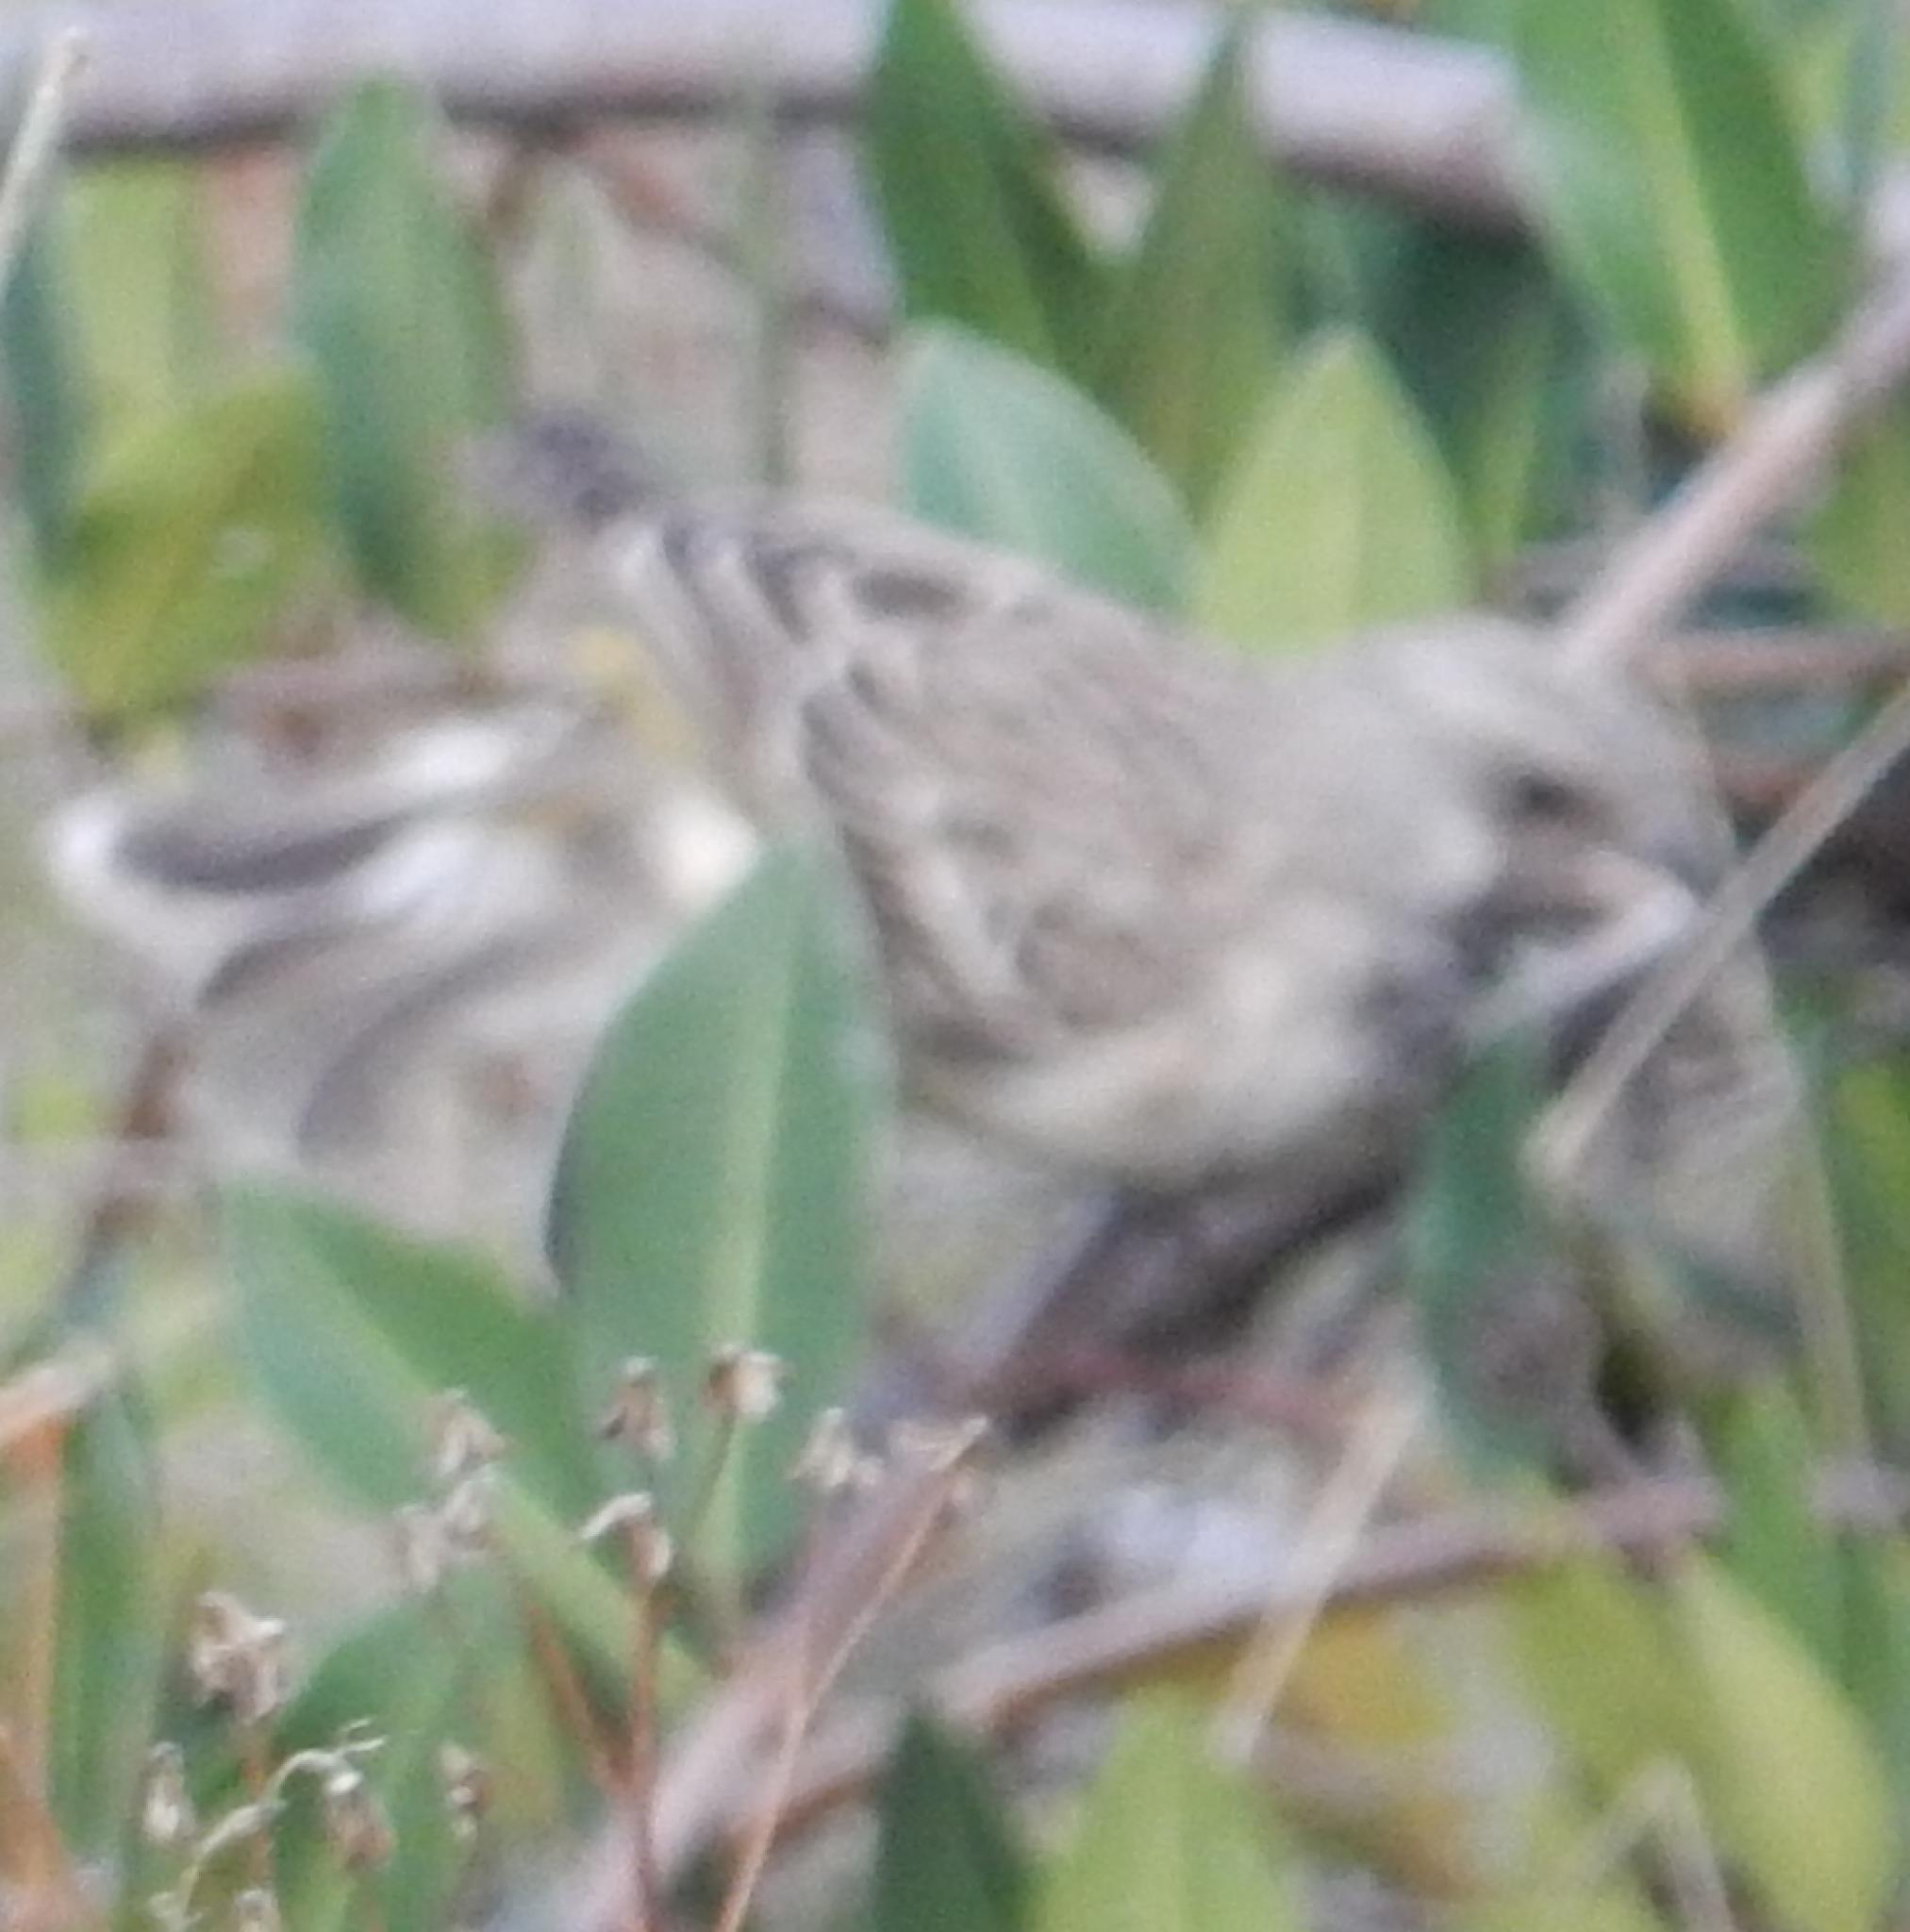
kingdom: Animalia
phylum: Chordata
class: Aves
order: Passeriformes
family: Fringillidae
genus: Crithagra
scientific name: Crithagra atrogularis
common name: Black-throated canary
